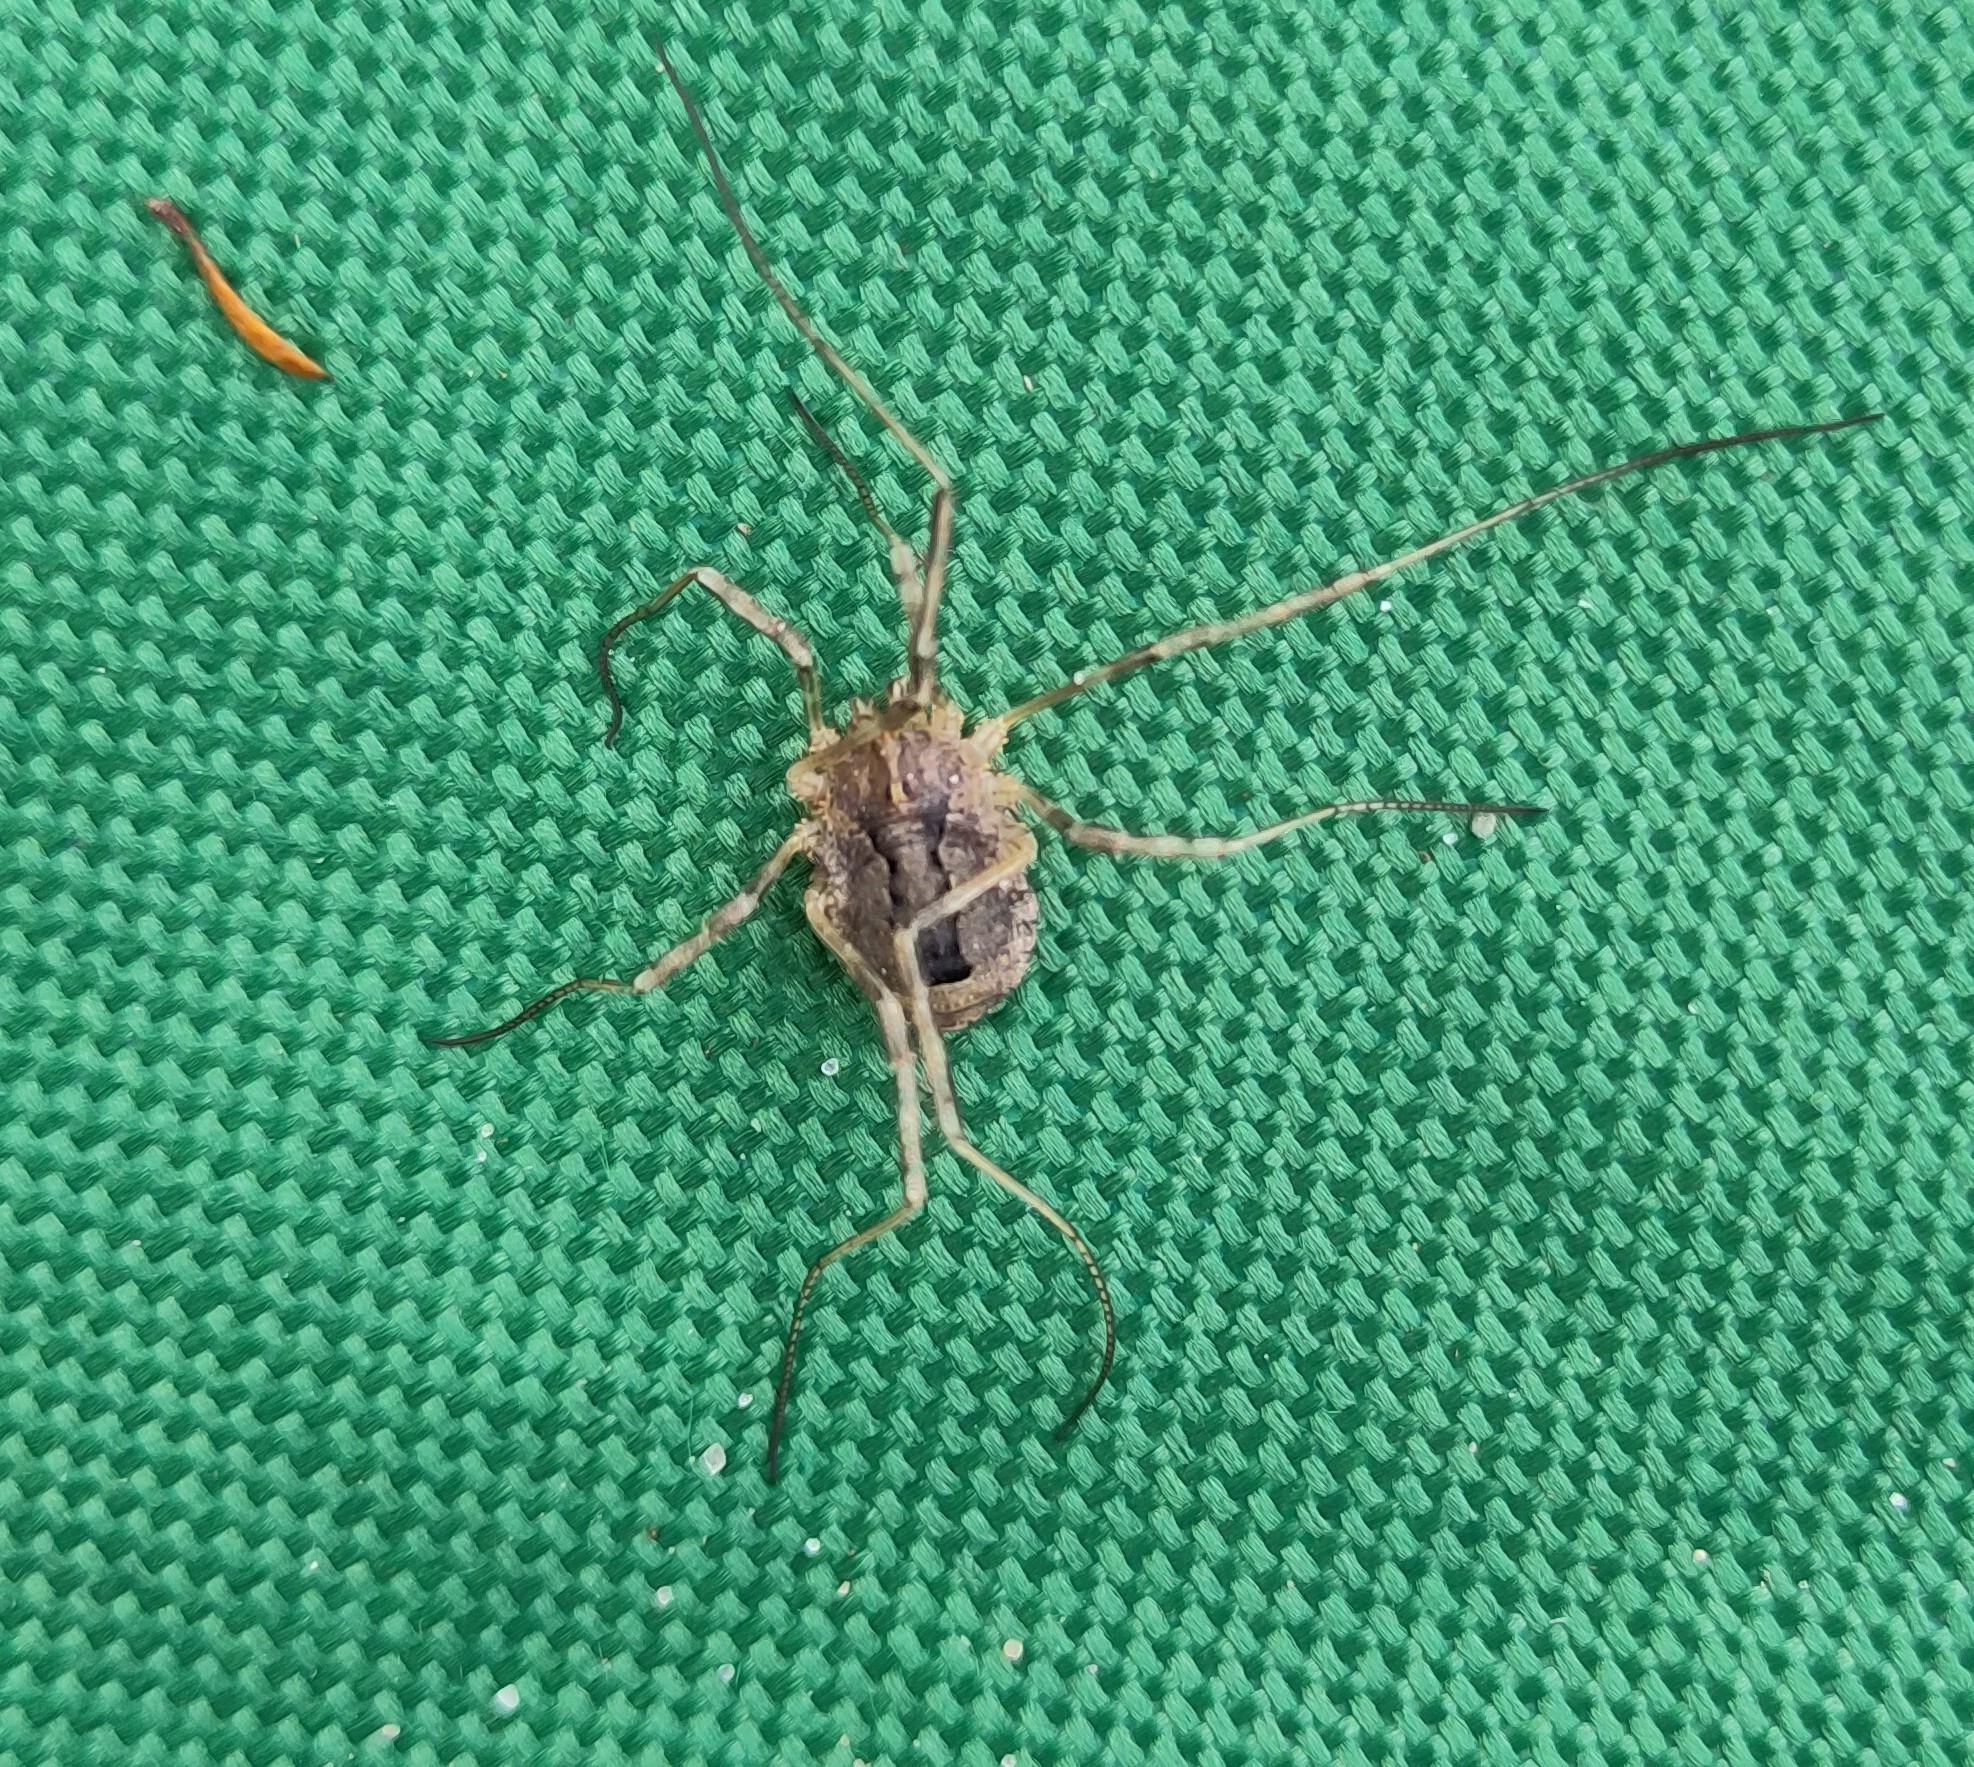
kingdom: Animalia
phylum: Arthropoda
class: Arachnida
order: Opiliones
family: Phalangiidae
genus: Odiellus
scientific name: Odiellus spinosus
